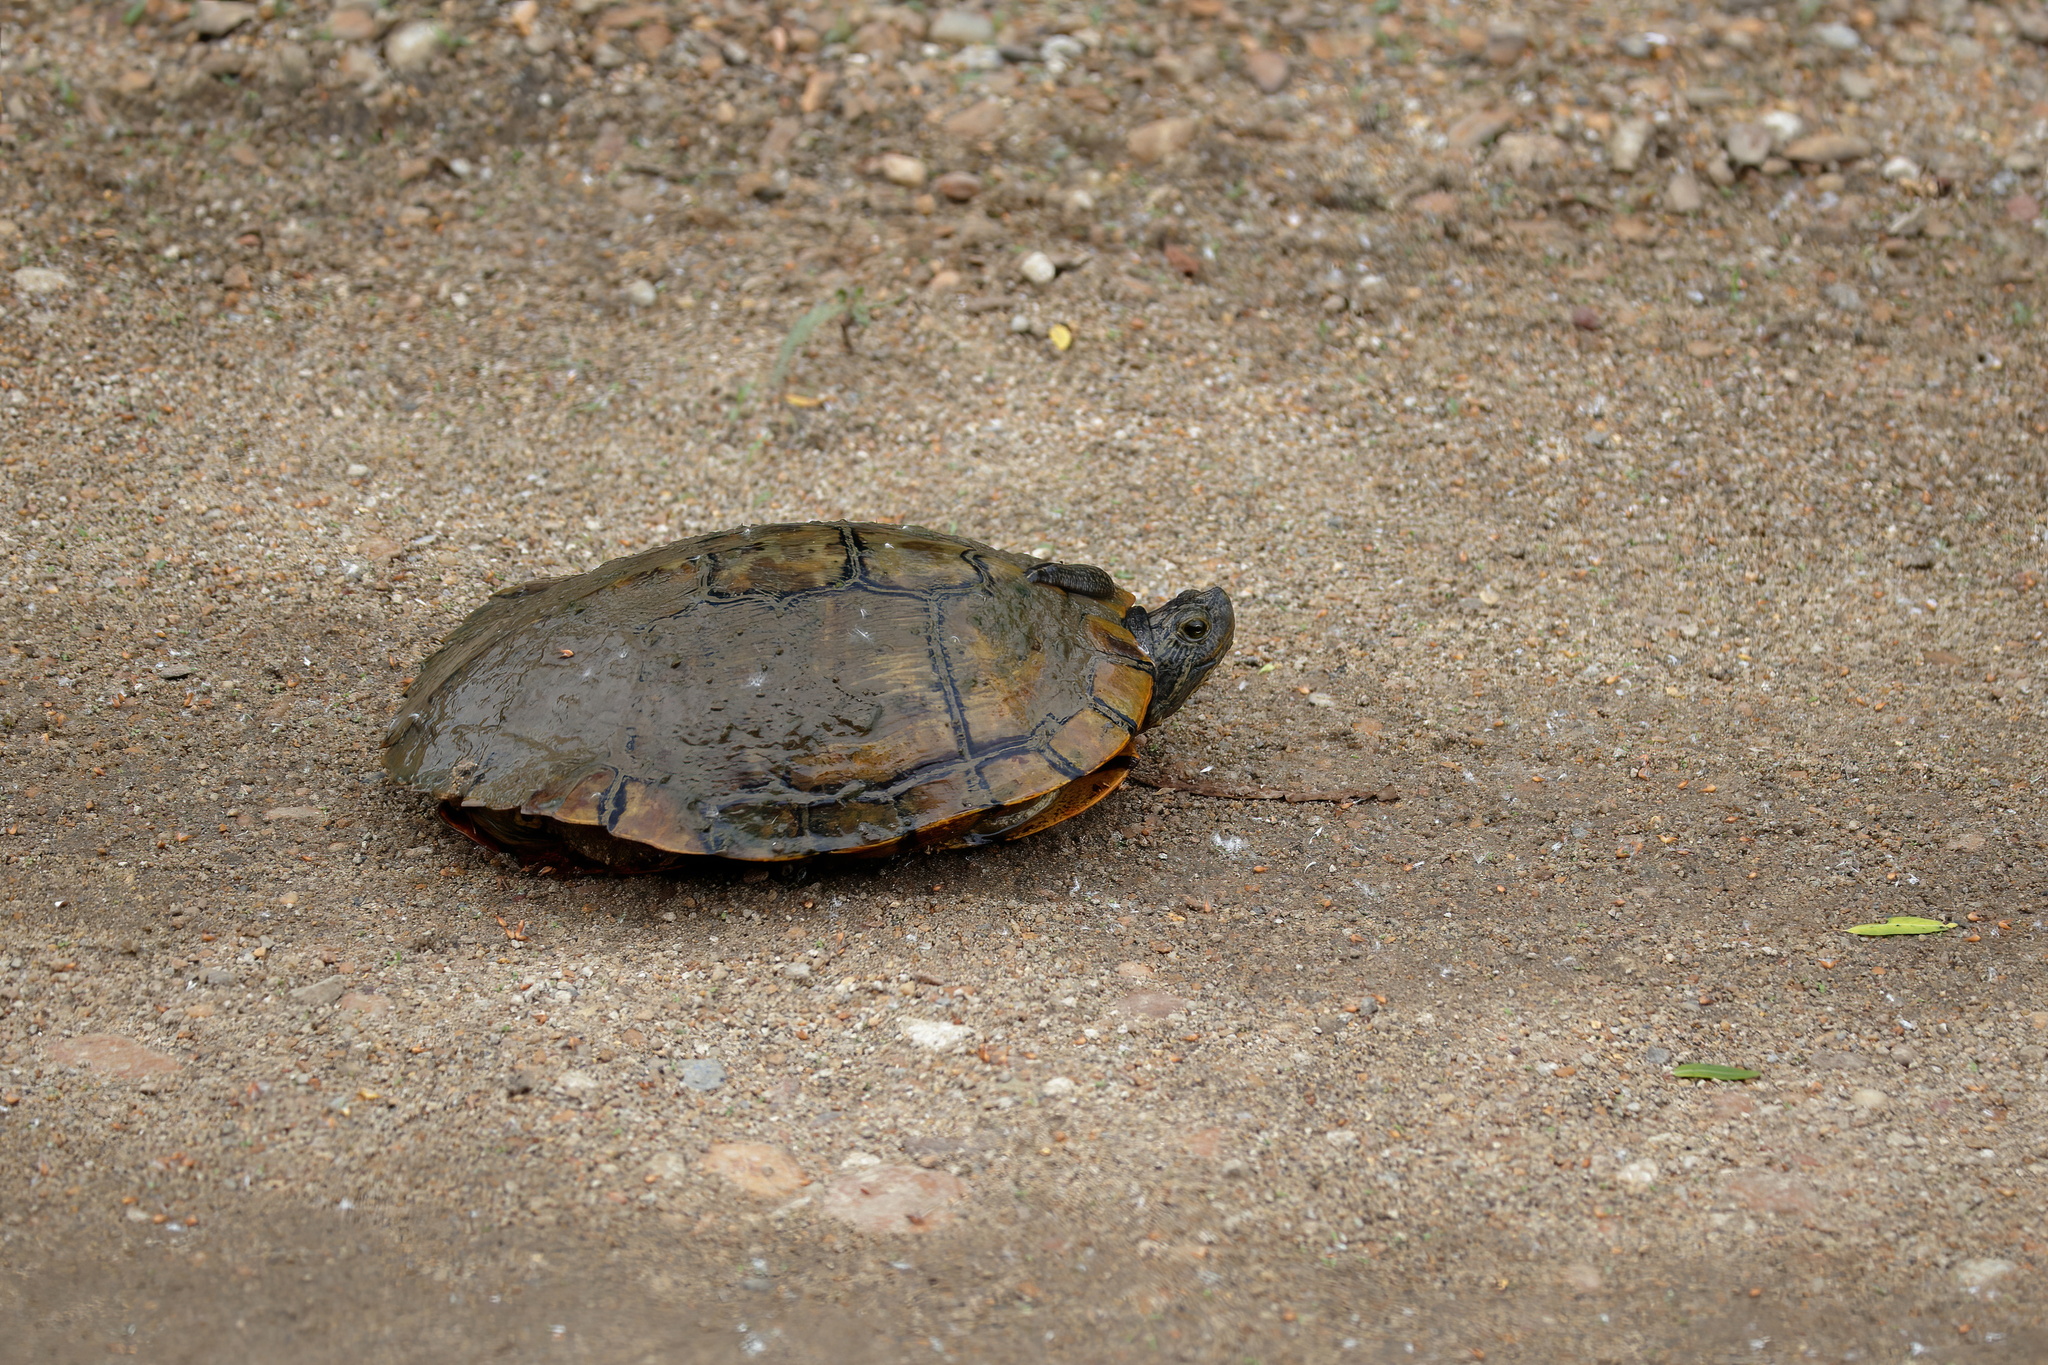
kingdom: Animalia
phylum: Chordata
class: Testudines
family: Emydidae
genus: Trachemys
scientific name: Trachemys scripta
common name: Slider
